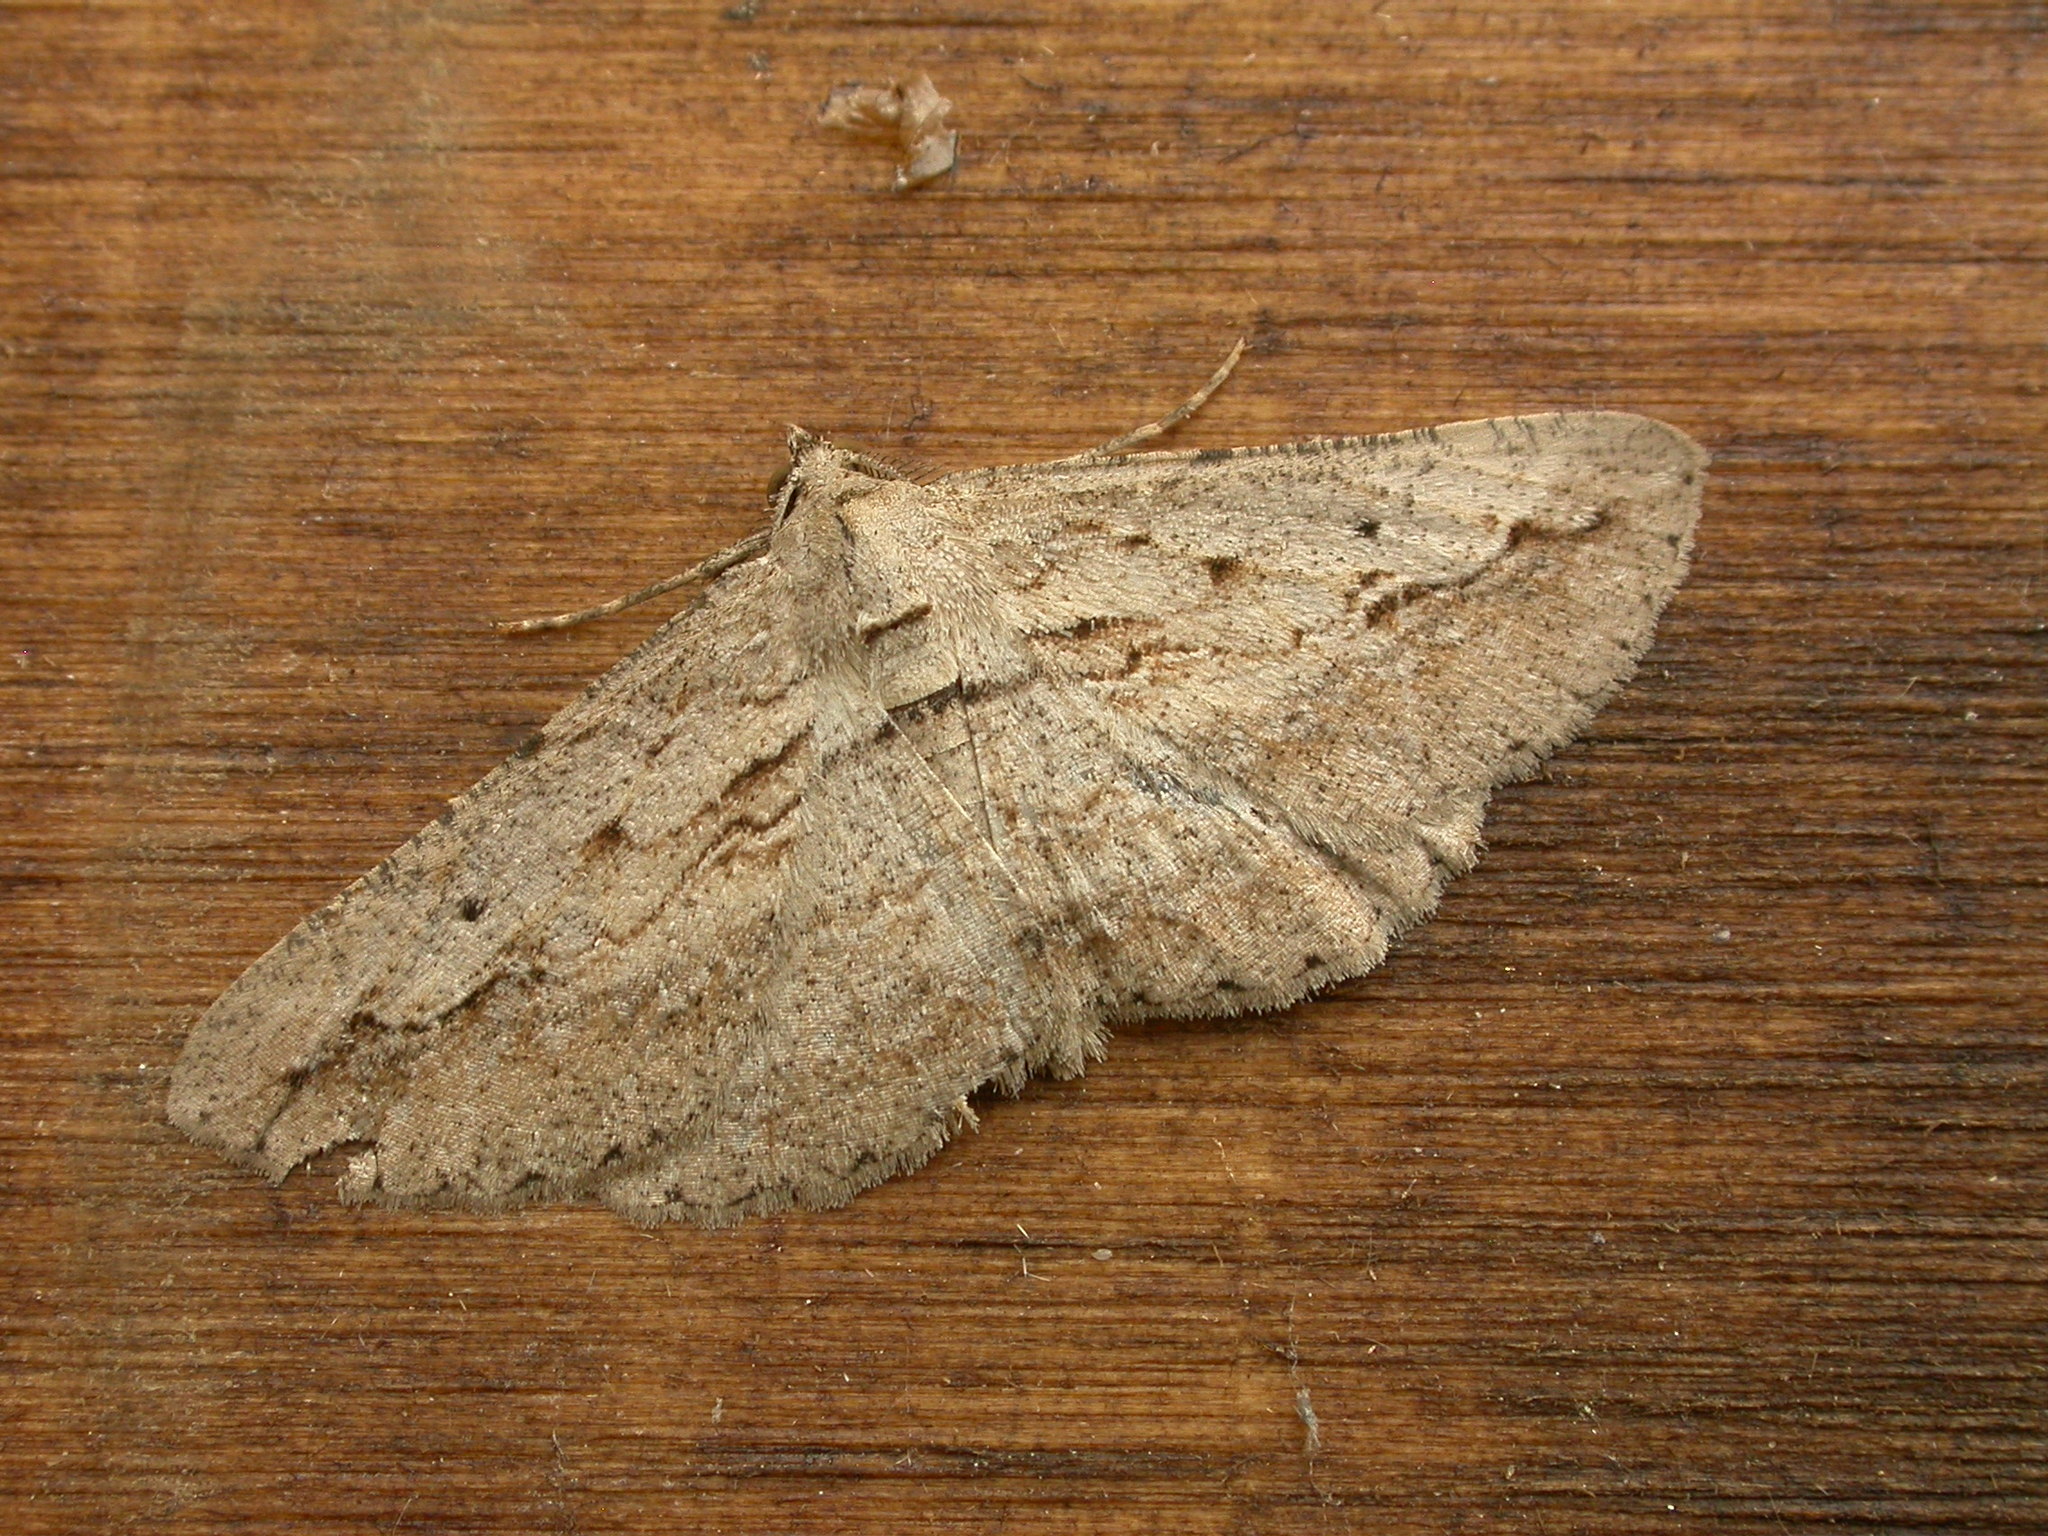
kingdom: Animalia
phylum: Arthropoda
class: Insecta
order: Lepidoptera
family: Geometridae
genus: Syneora
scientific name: Syneora excursaria
